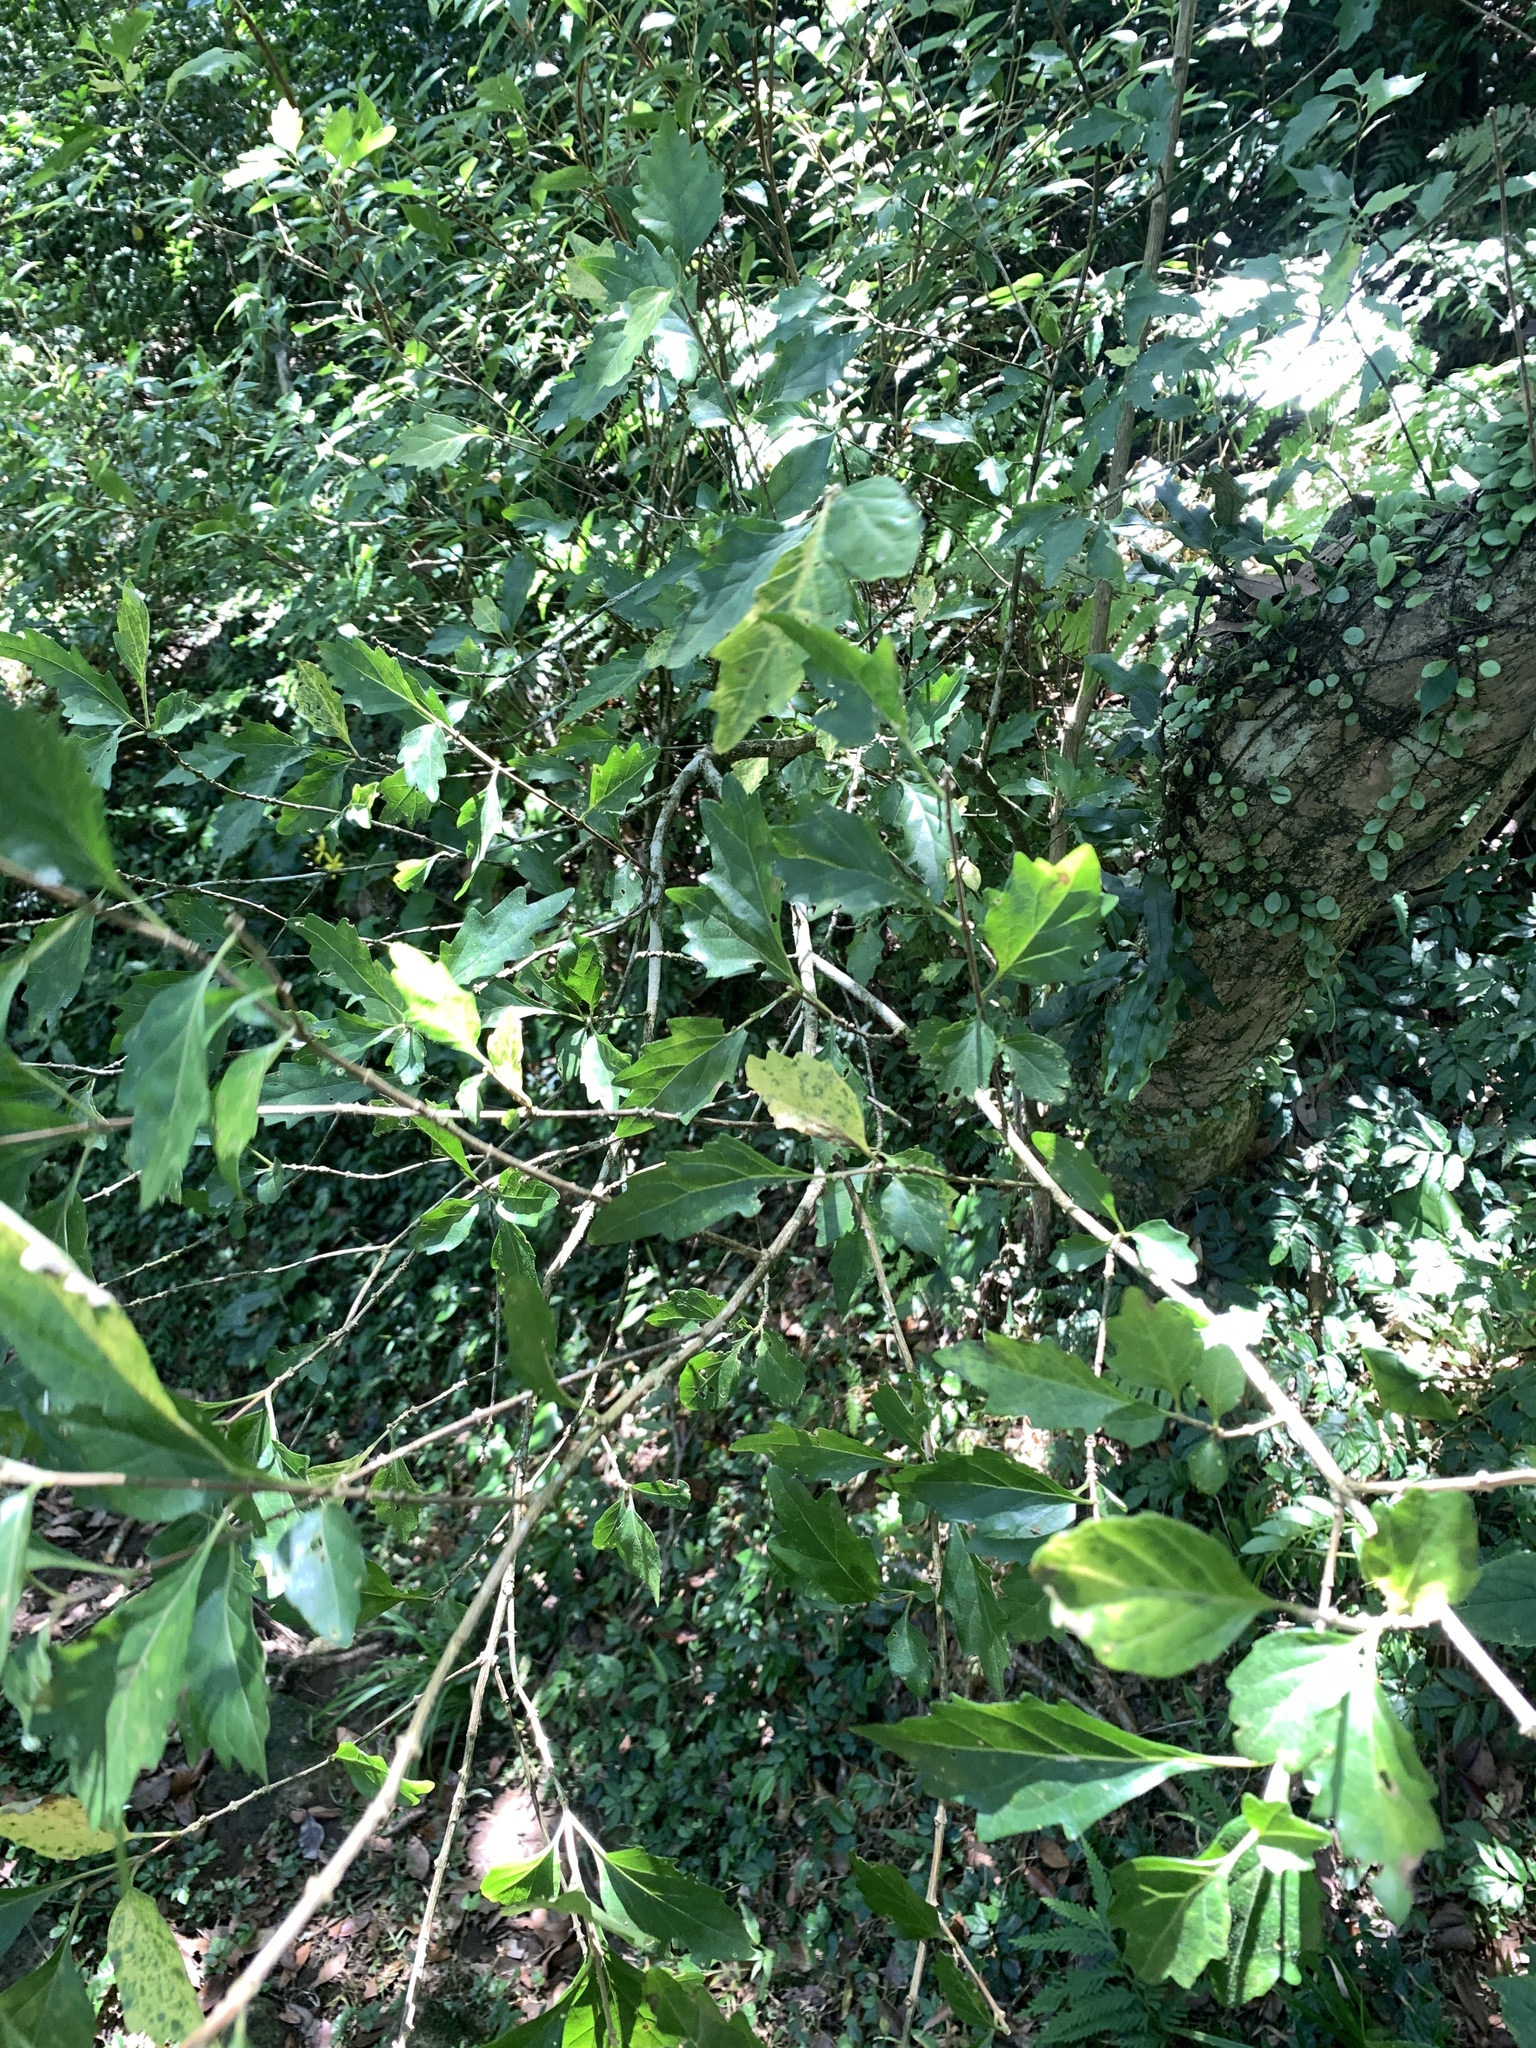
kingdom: Plantae
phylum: Tracheophyta
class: Magnoliopsida
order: Lamiales
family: Lamiaceae
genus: Premna
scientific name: Premna microphylla
